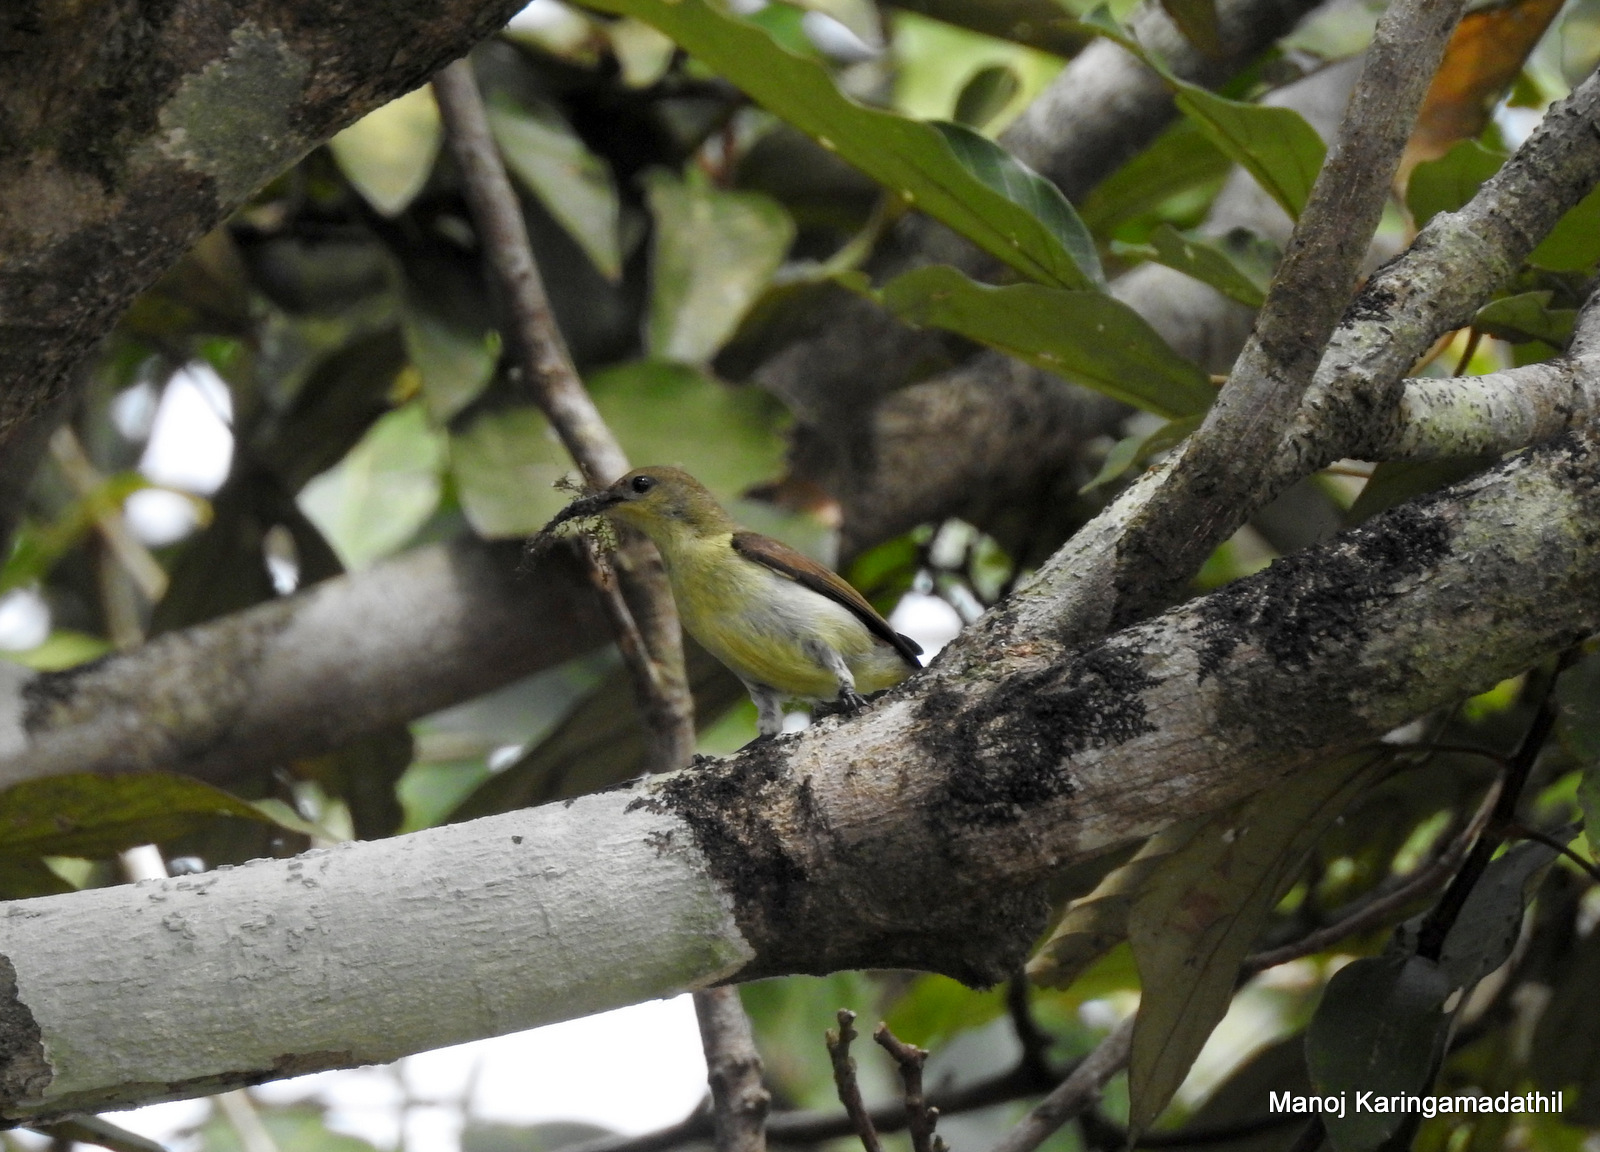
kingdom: Animalia
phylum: Chordata
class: Aves
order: Passeriformes
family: Nectariniidae
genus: Leptocoma
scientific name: Leptocoma zeylonica
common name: Purple-rumped sunbird
